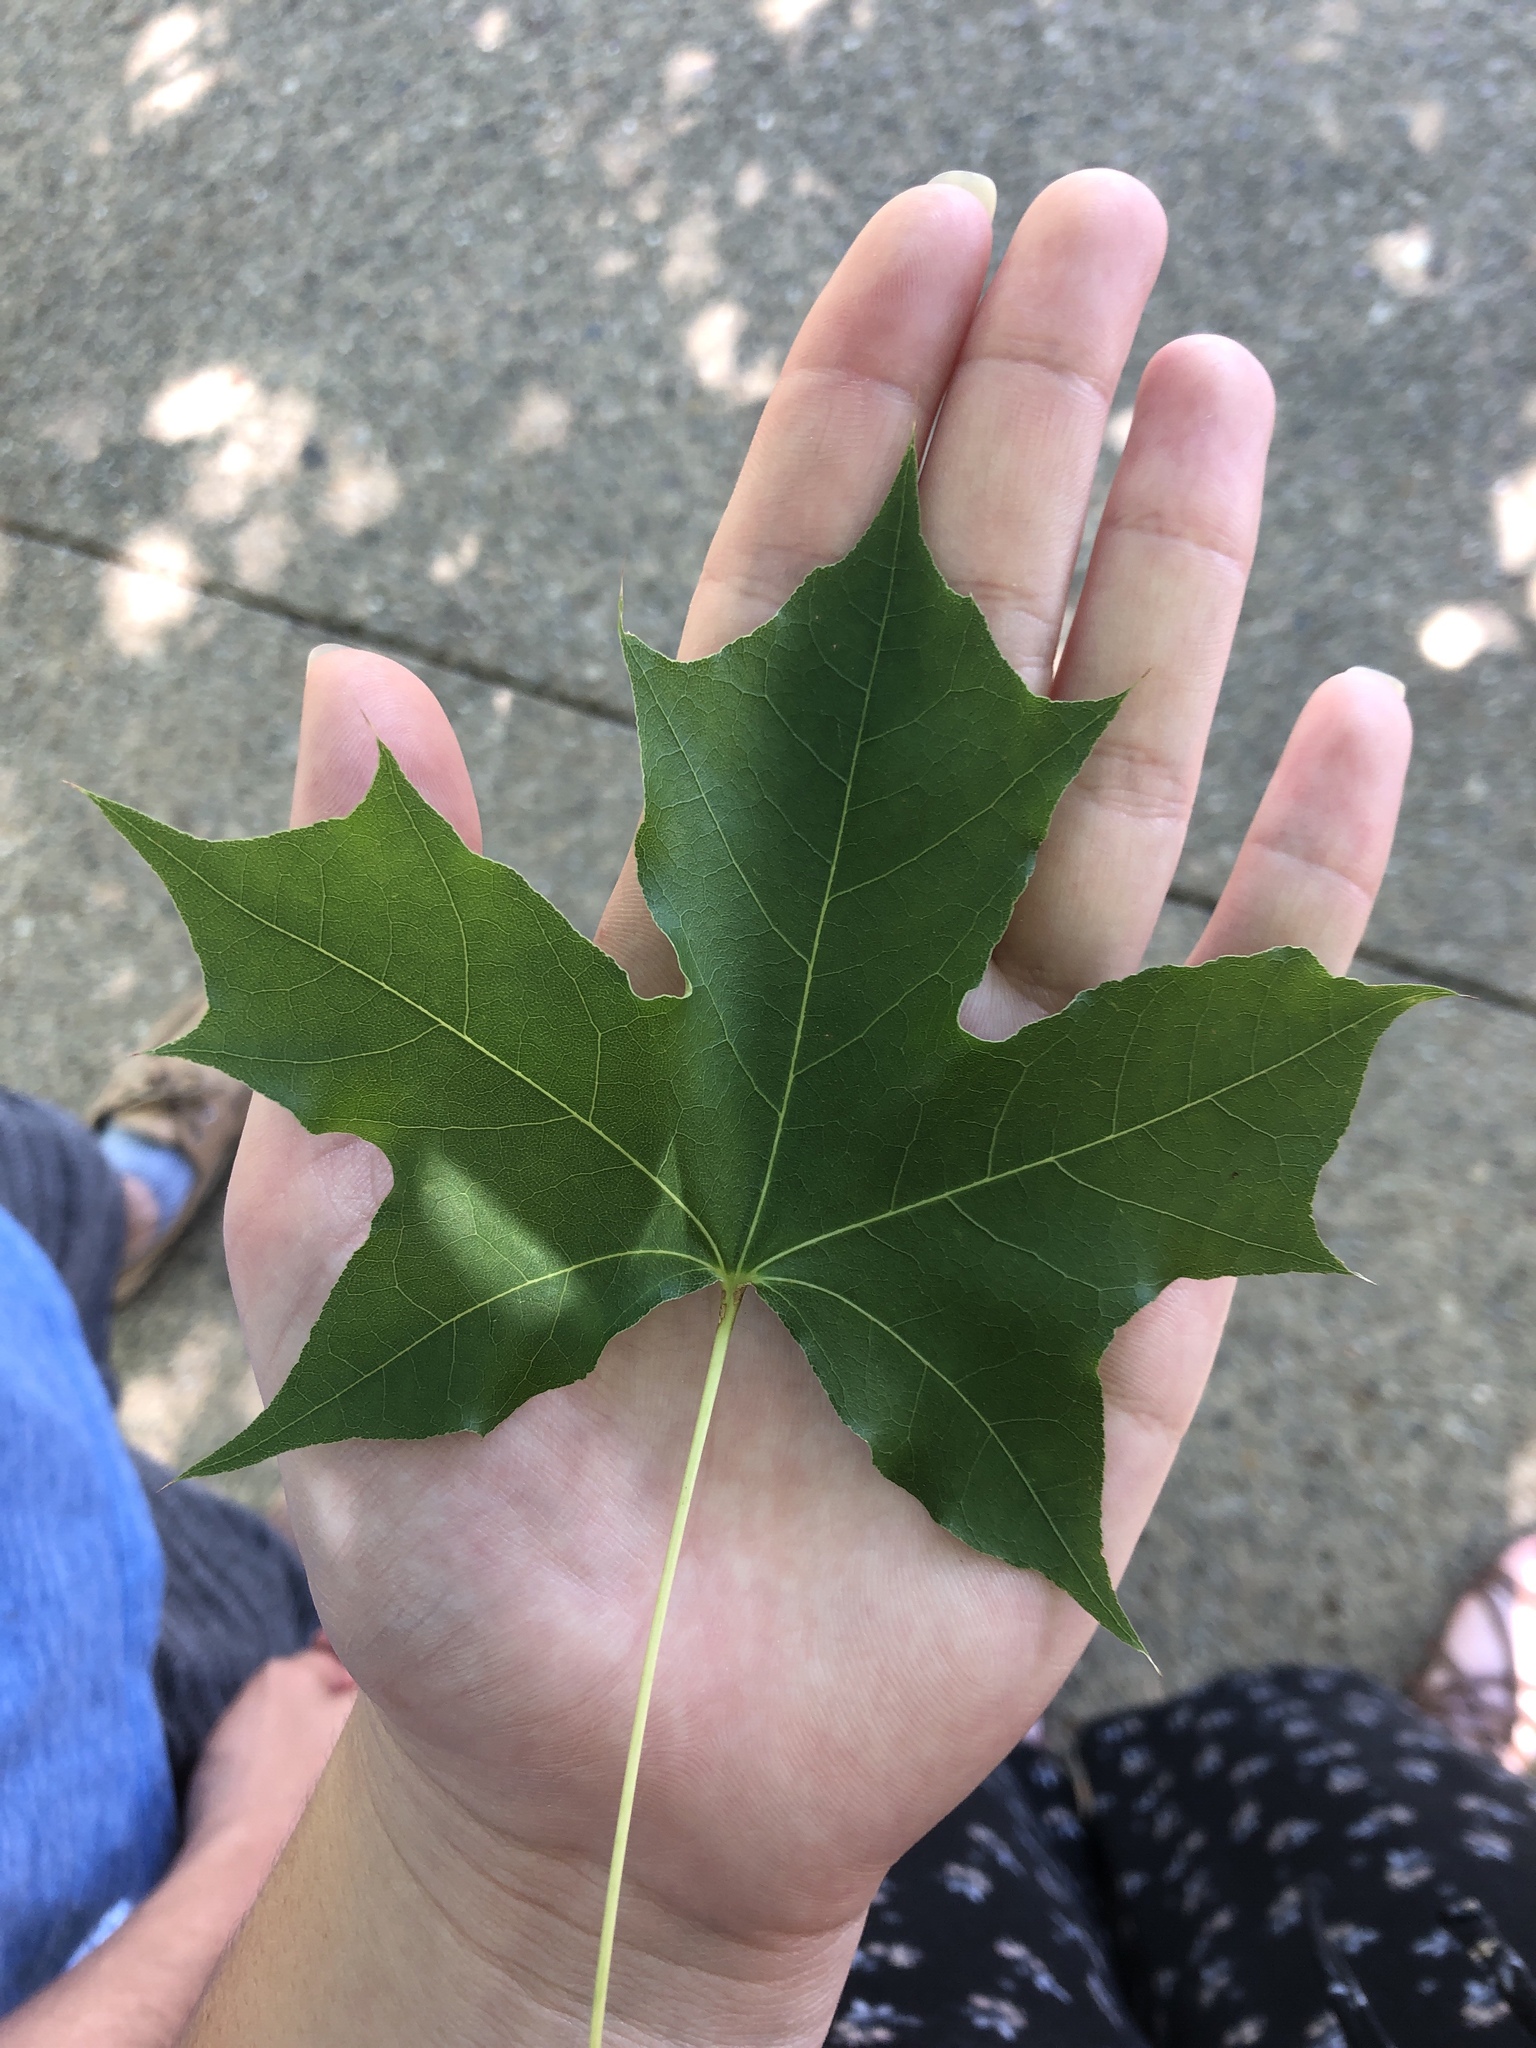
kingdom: Plantae
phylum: Tracheophyta
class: Magnoliopsida
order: Saxifragales
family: Altingiaceae
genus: Liquidambar
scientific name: Liquidambar styraciflua
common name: Sweet gum
